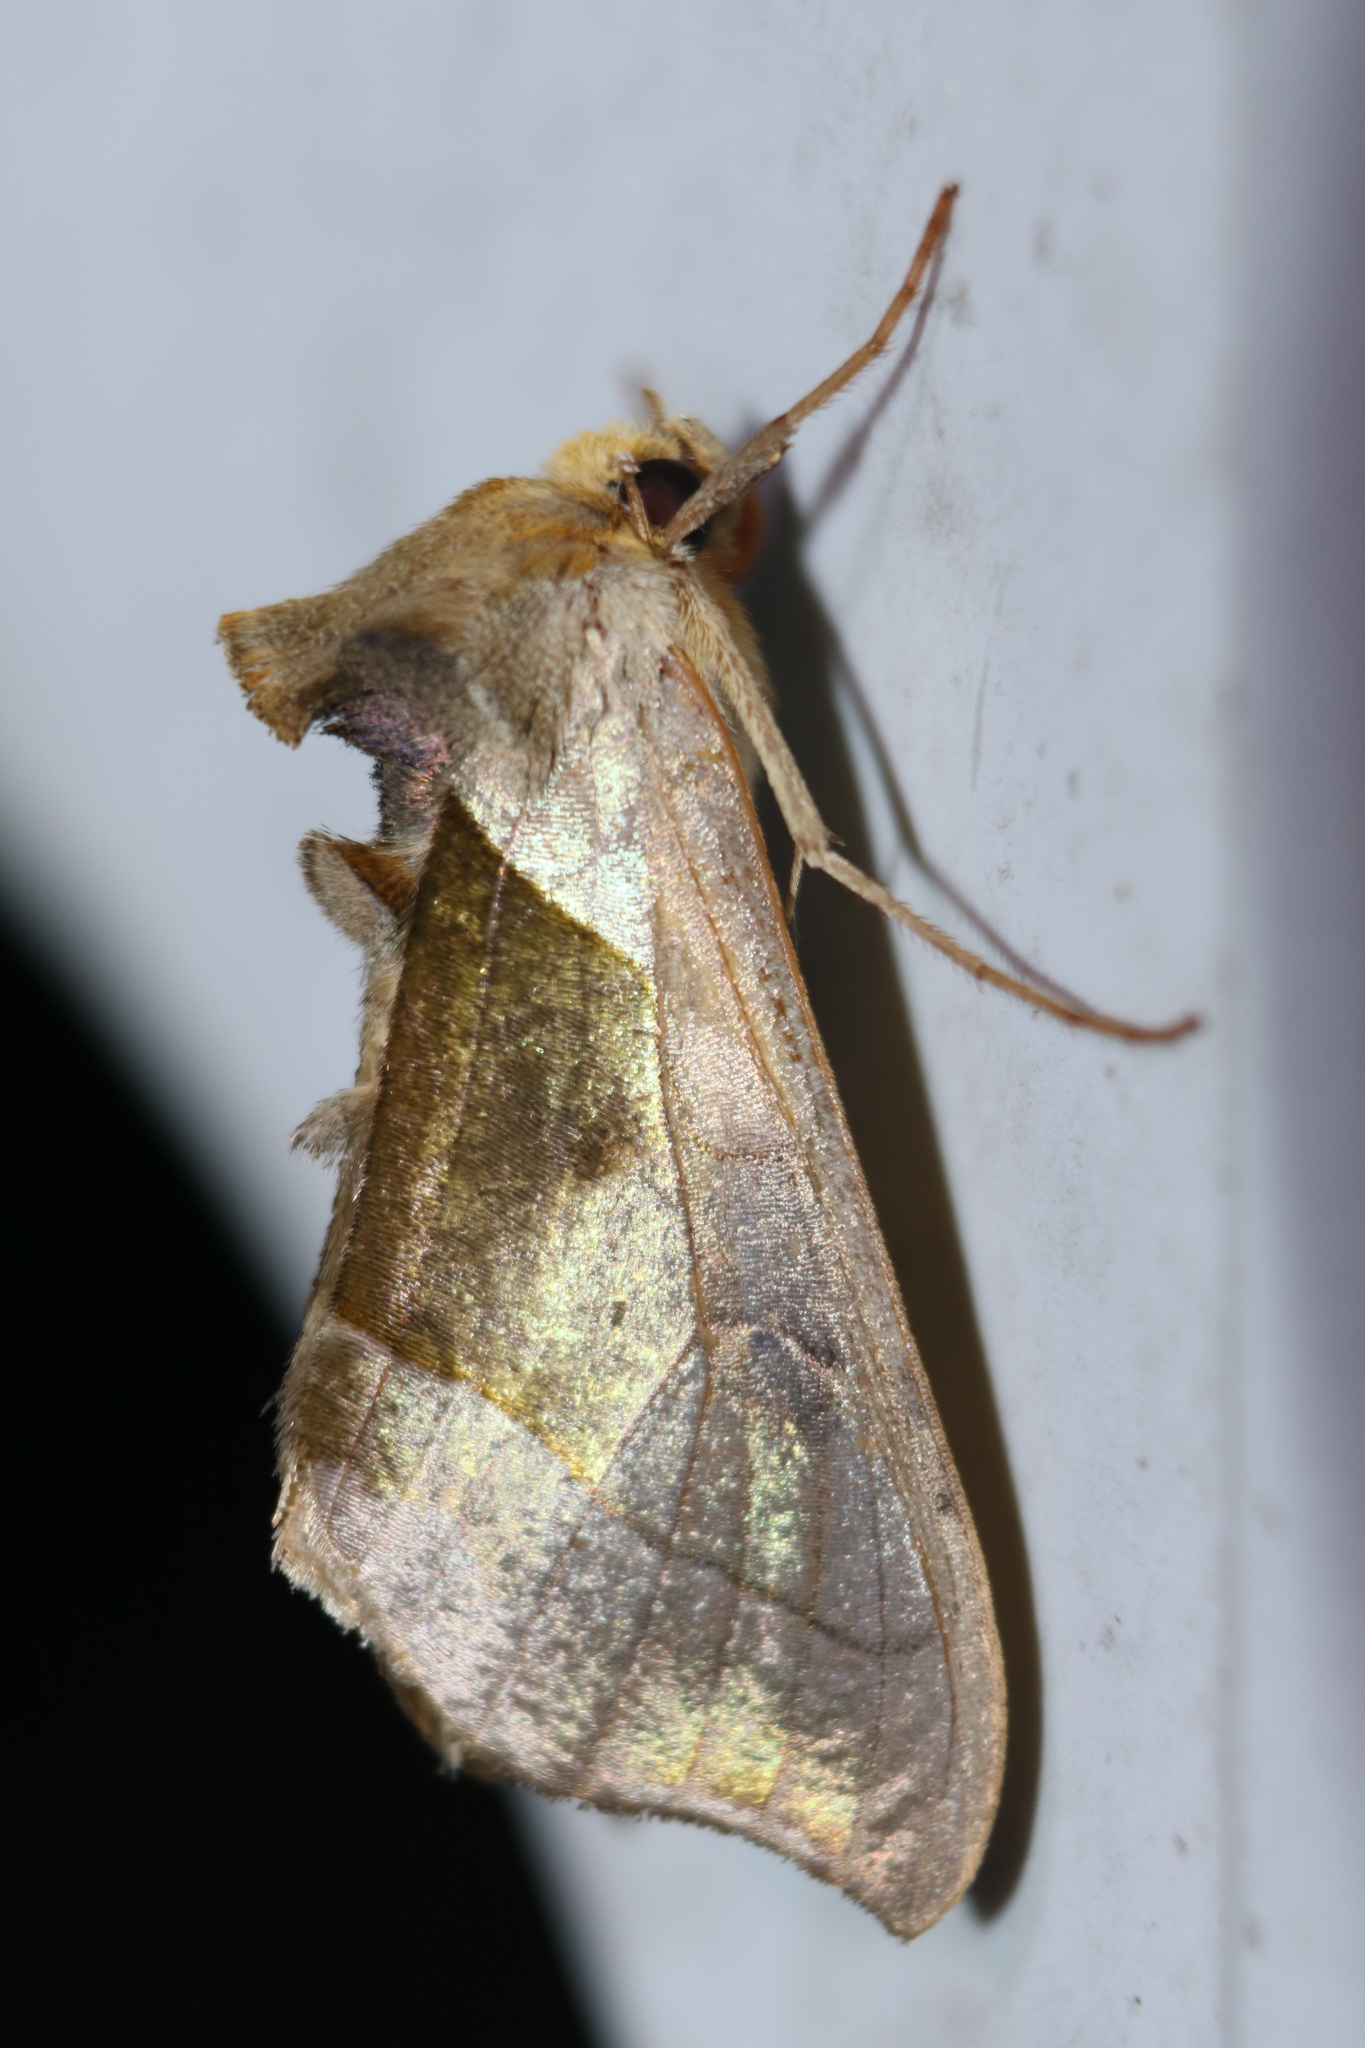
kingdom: Animalia
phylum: Arthropoda
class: Insecta
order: Lepidoptera
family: Noctuidae
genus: Diachrysia
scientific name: Diachrysia balluca
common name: Green-patched looper moth
